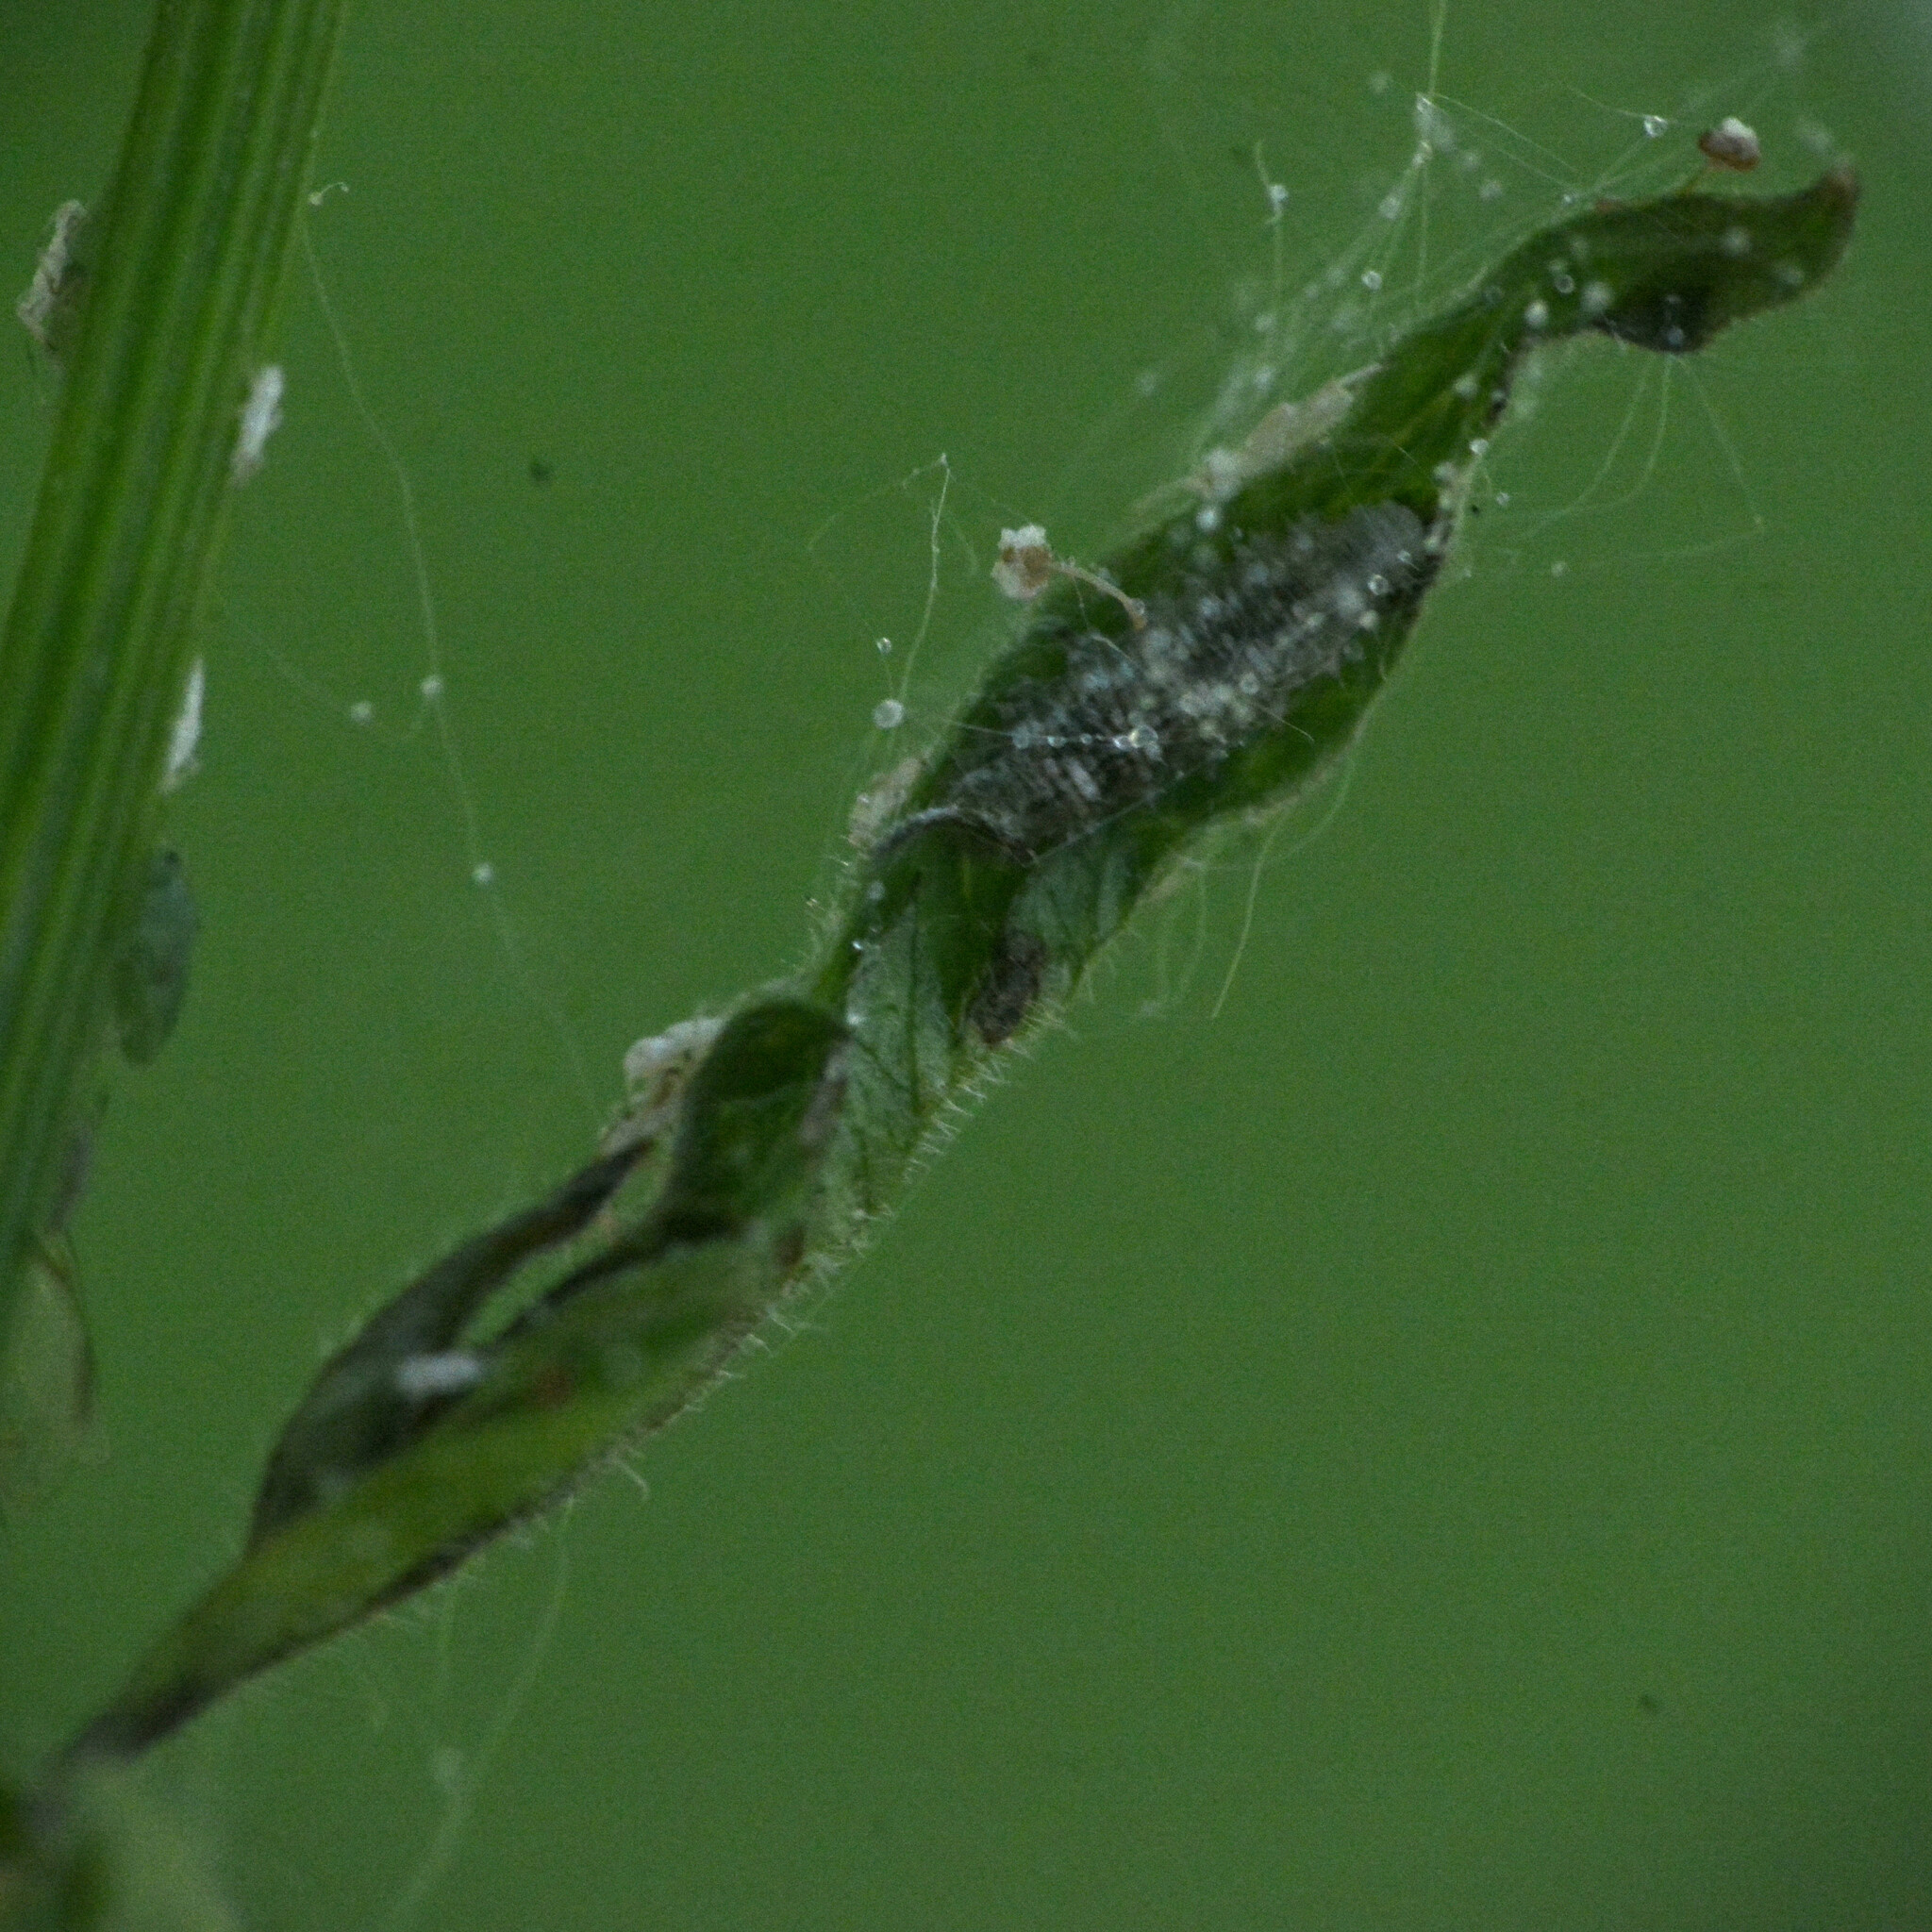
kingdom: Animalia
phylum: Arthropoda
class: Insecta
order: Diptera
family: Syrphidae
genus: Eupeodes
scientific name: Eupeodes
